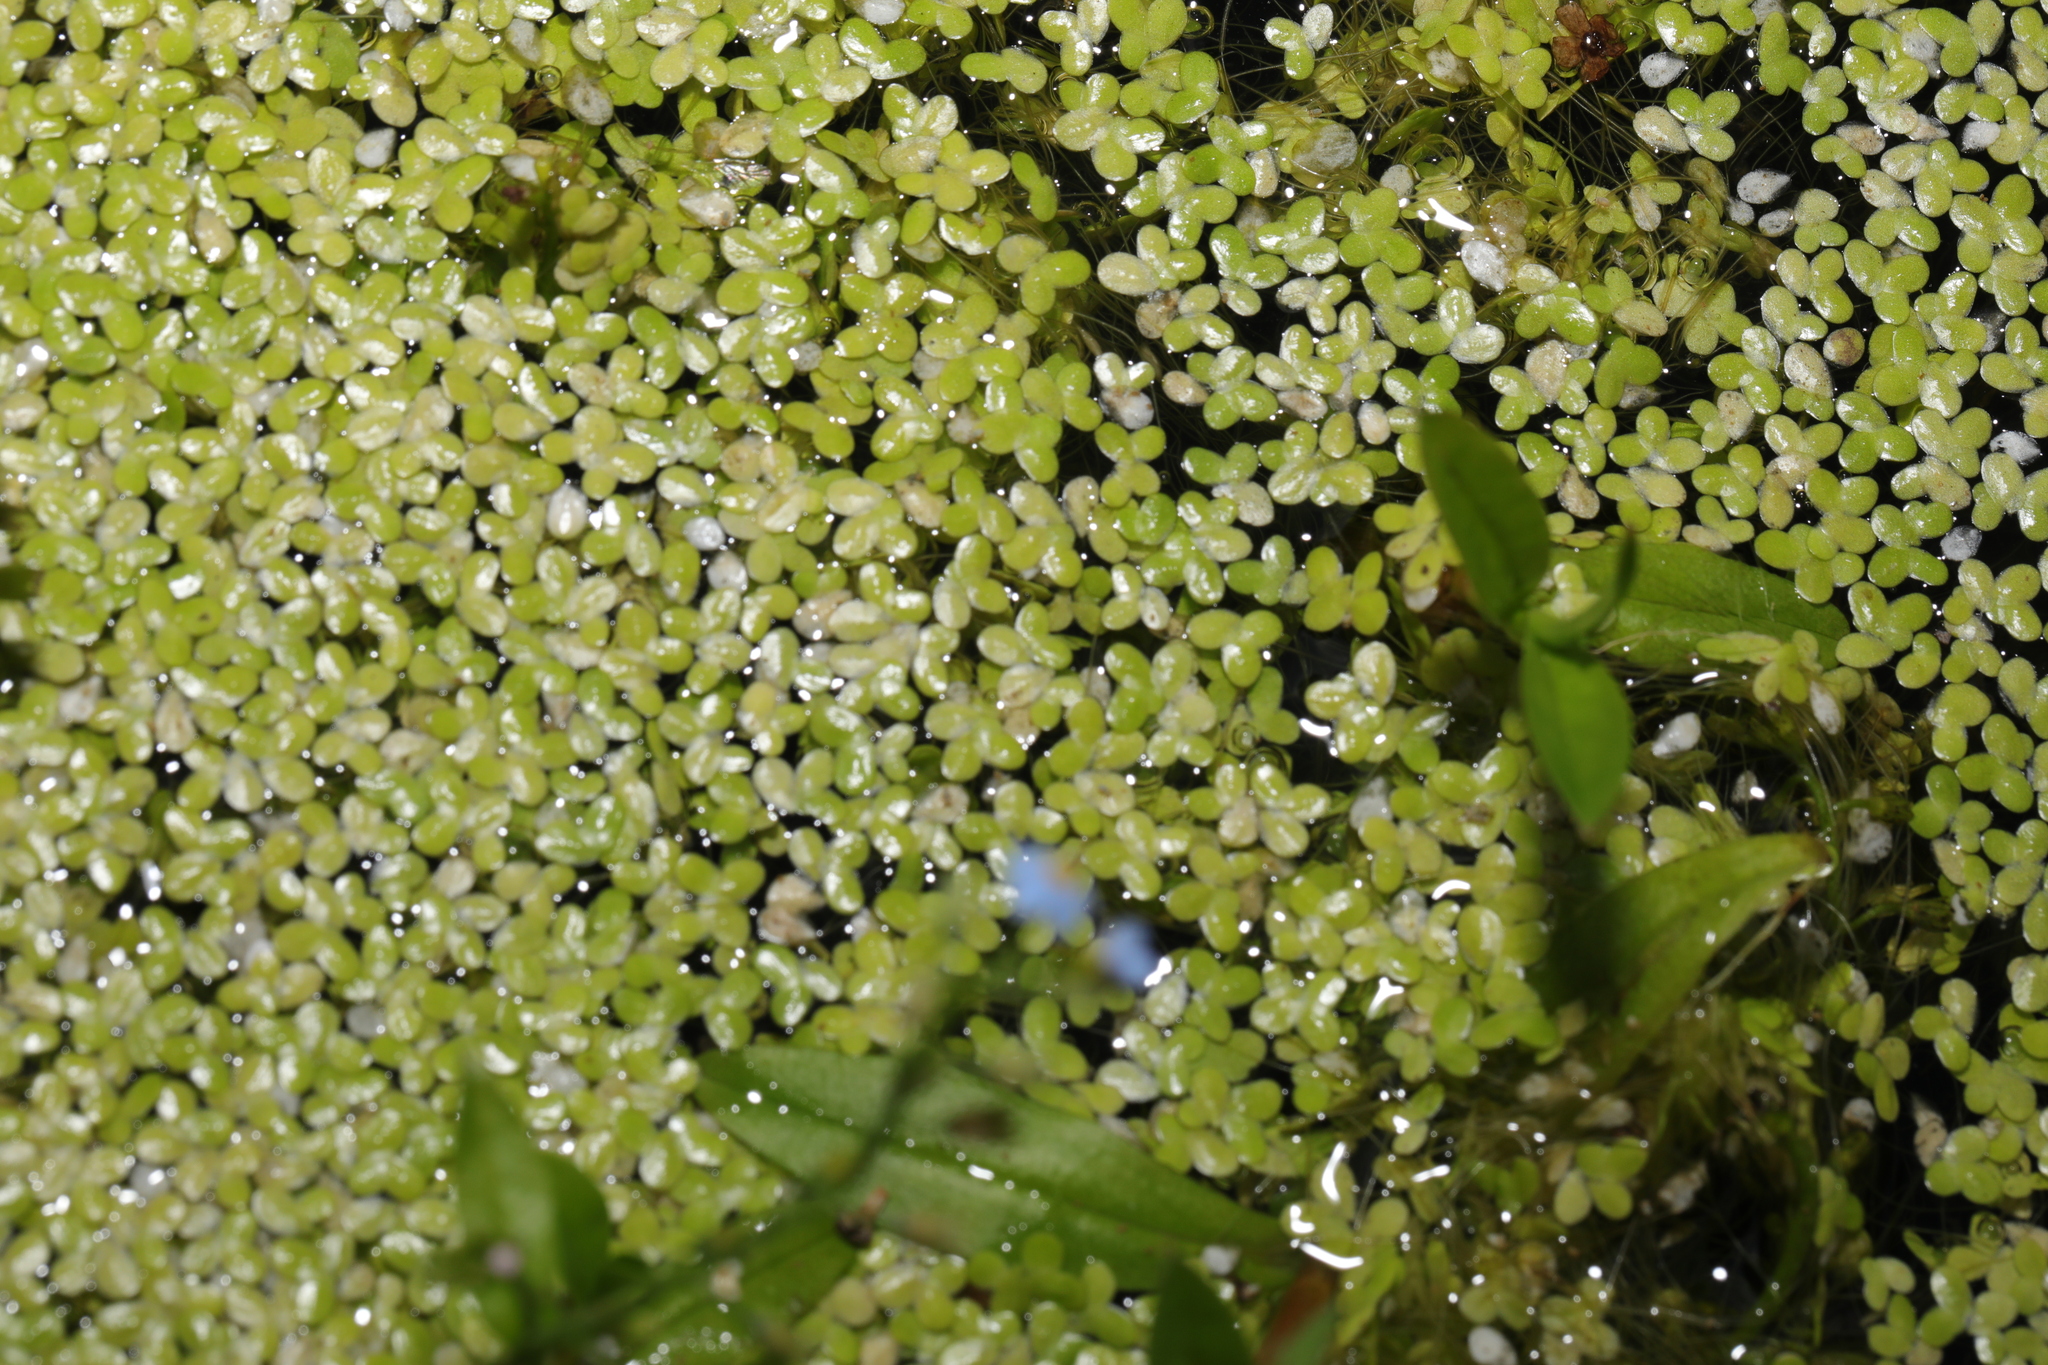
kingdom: Plantae
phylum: Tracheophyta
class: Liliopsida
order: Alismatales
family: Araceae
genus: Lemna
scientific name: Lemna minor
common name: Common duckweed
